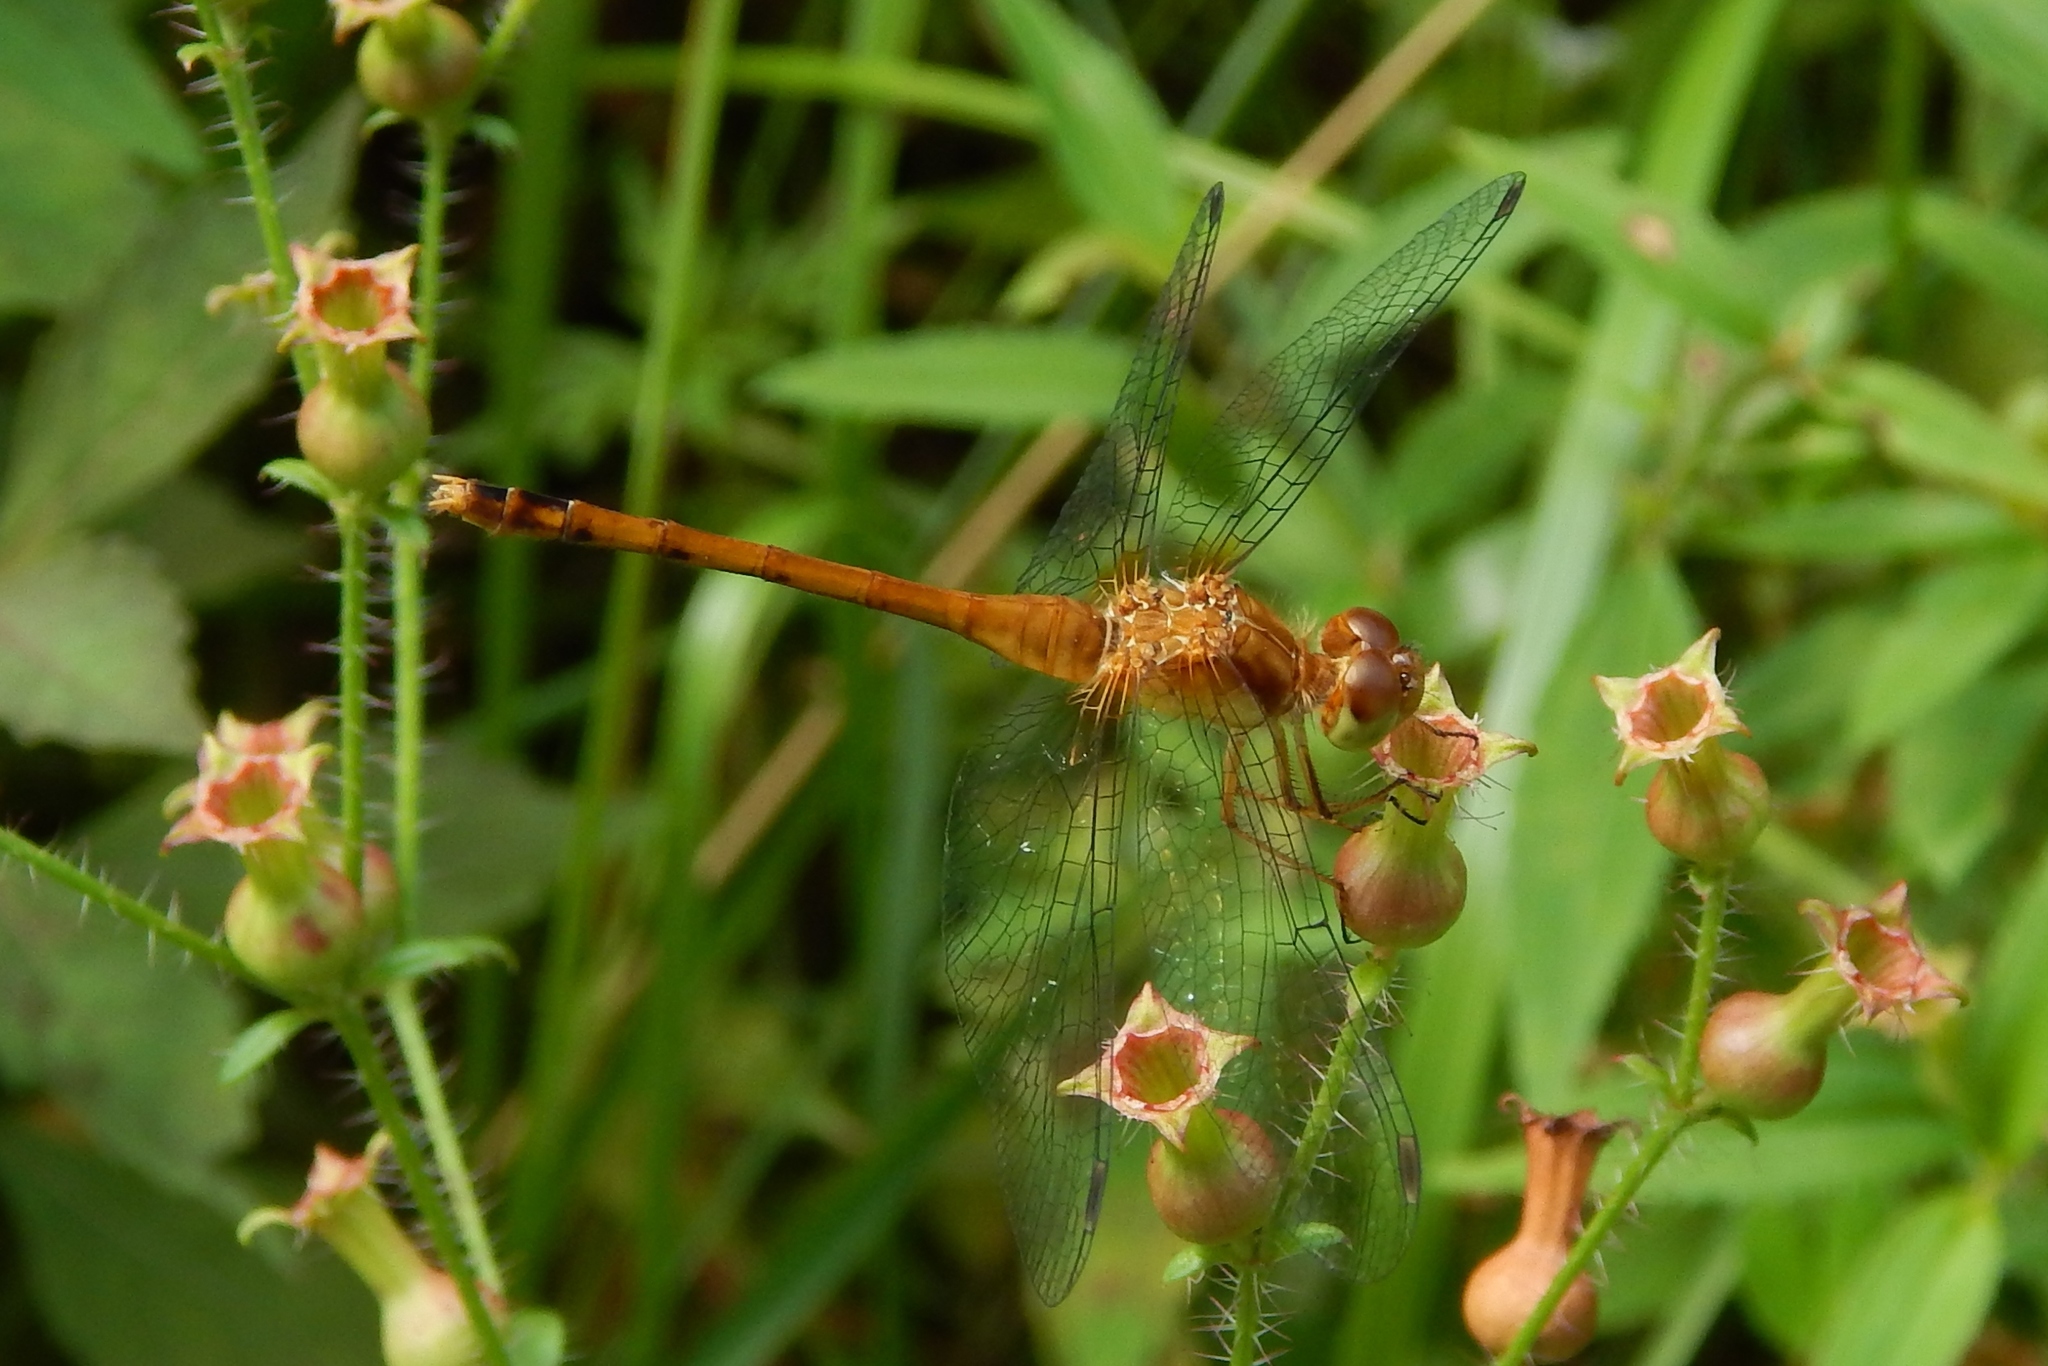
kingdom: Animalia
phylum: Arthropoda
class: Insecta
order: Odonata
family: Libellulidae
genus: Sympetrum
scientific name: Sympetrum vicinum
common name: Autumn meadowhawk
